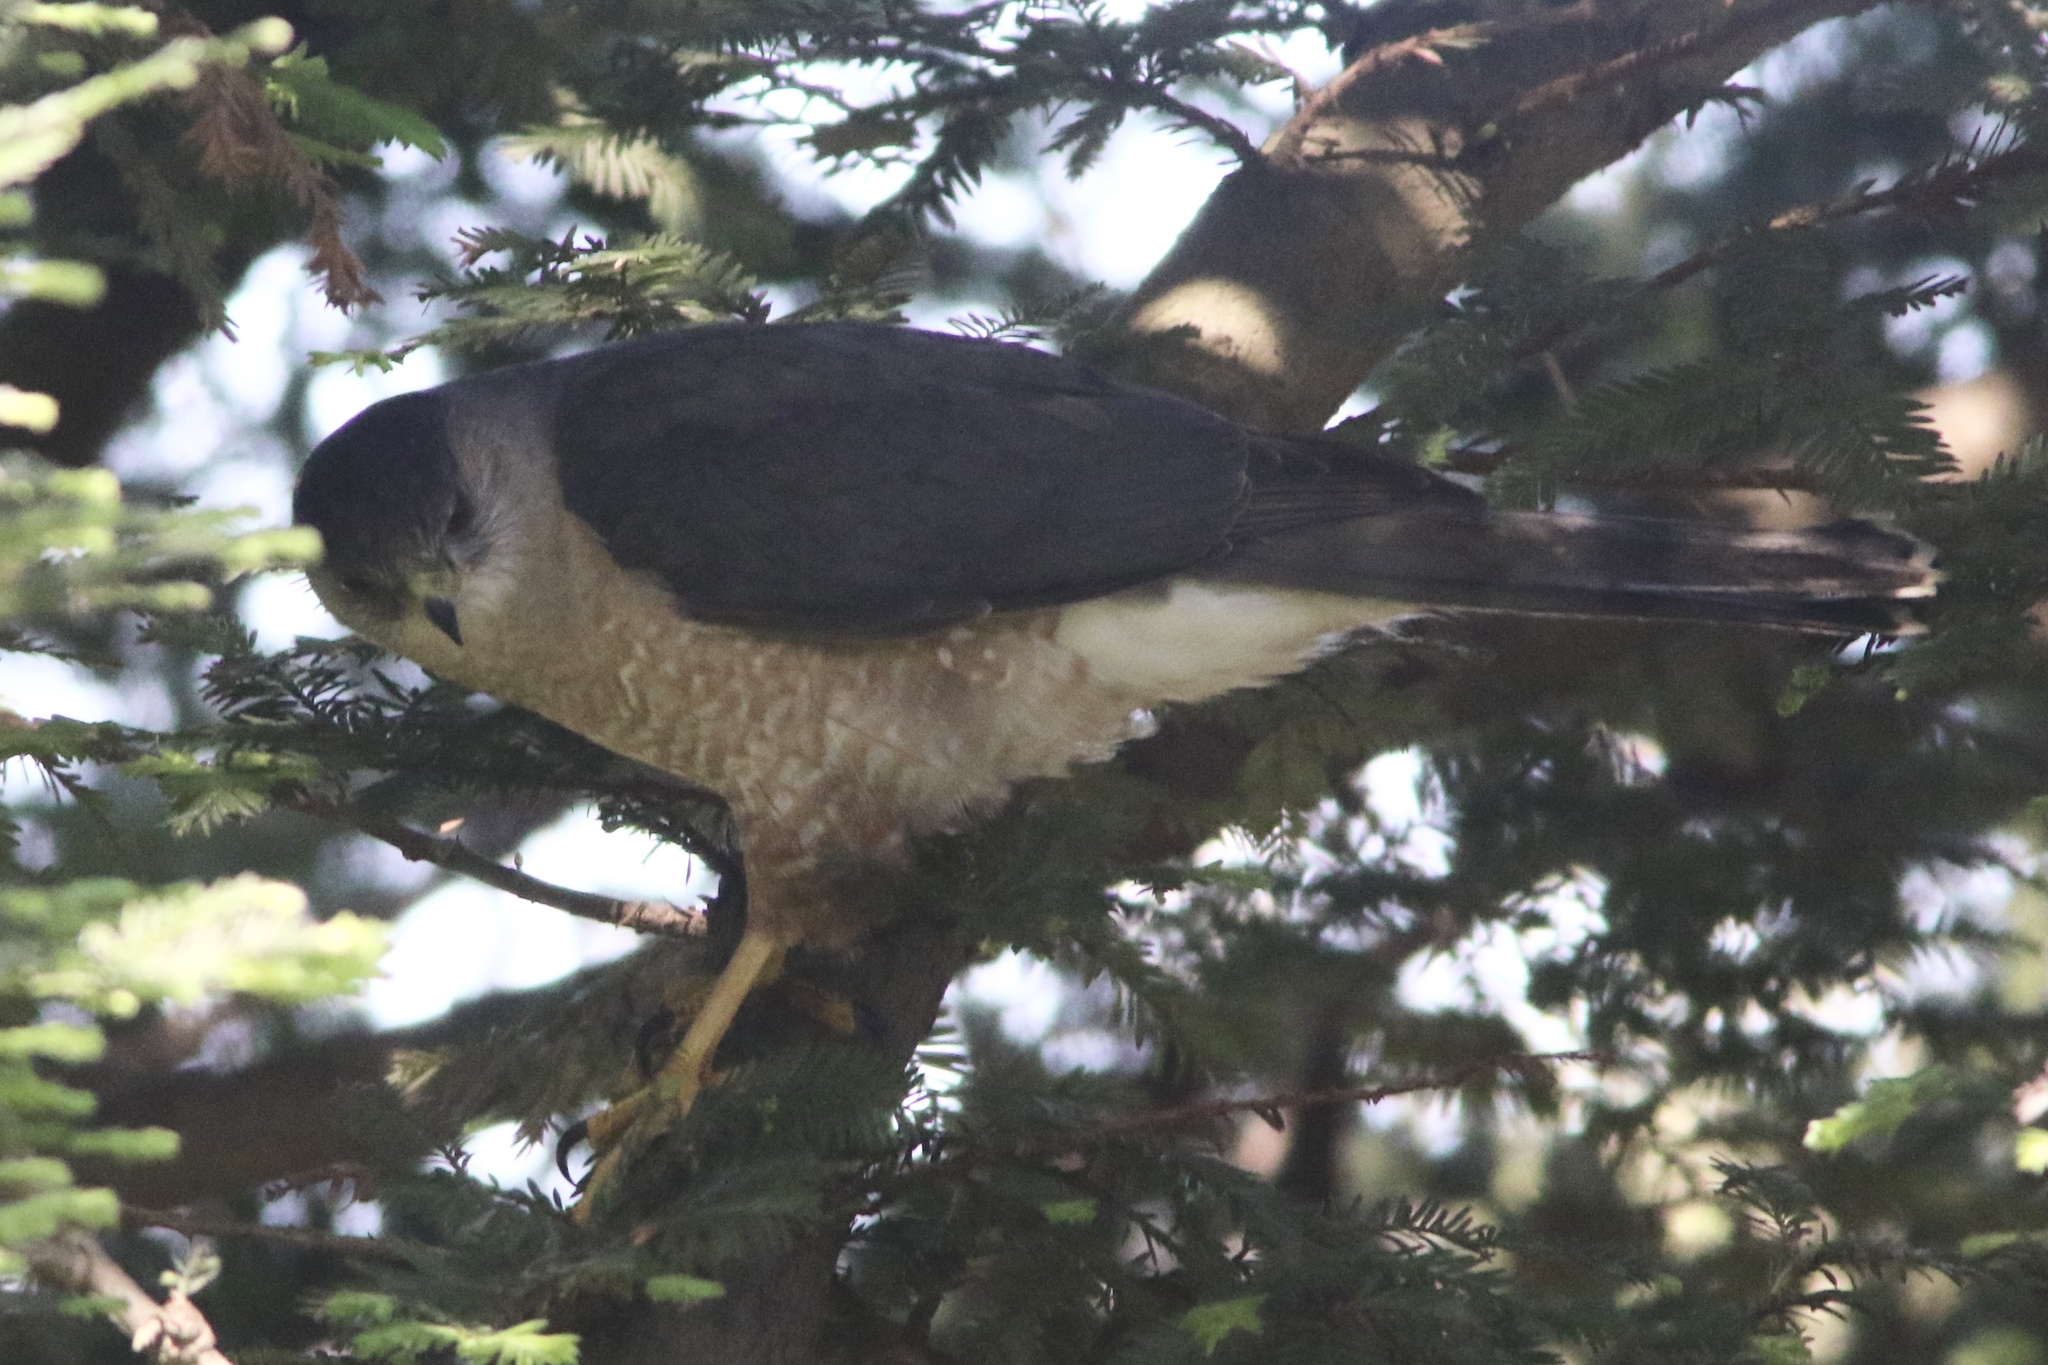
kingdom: Animalia
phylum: Chordata
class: Aves
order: Accipitriformes
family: Accipitridae
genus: Accipiter
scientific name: Accipiter cooperii
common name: Cooper's hawk
